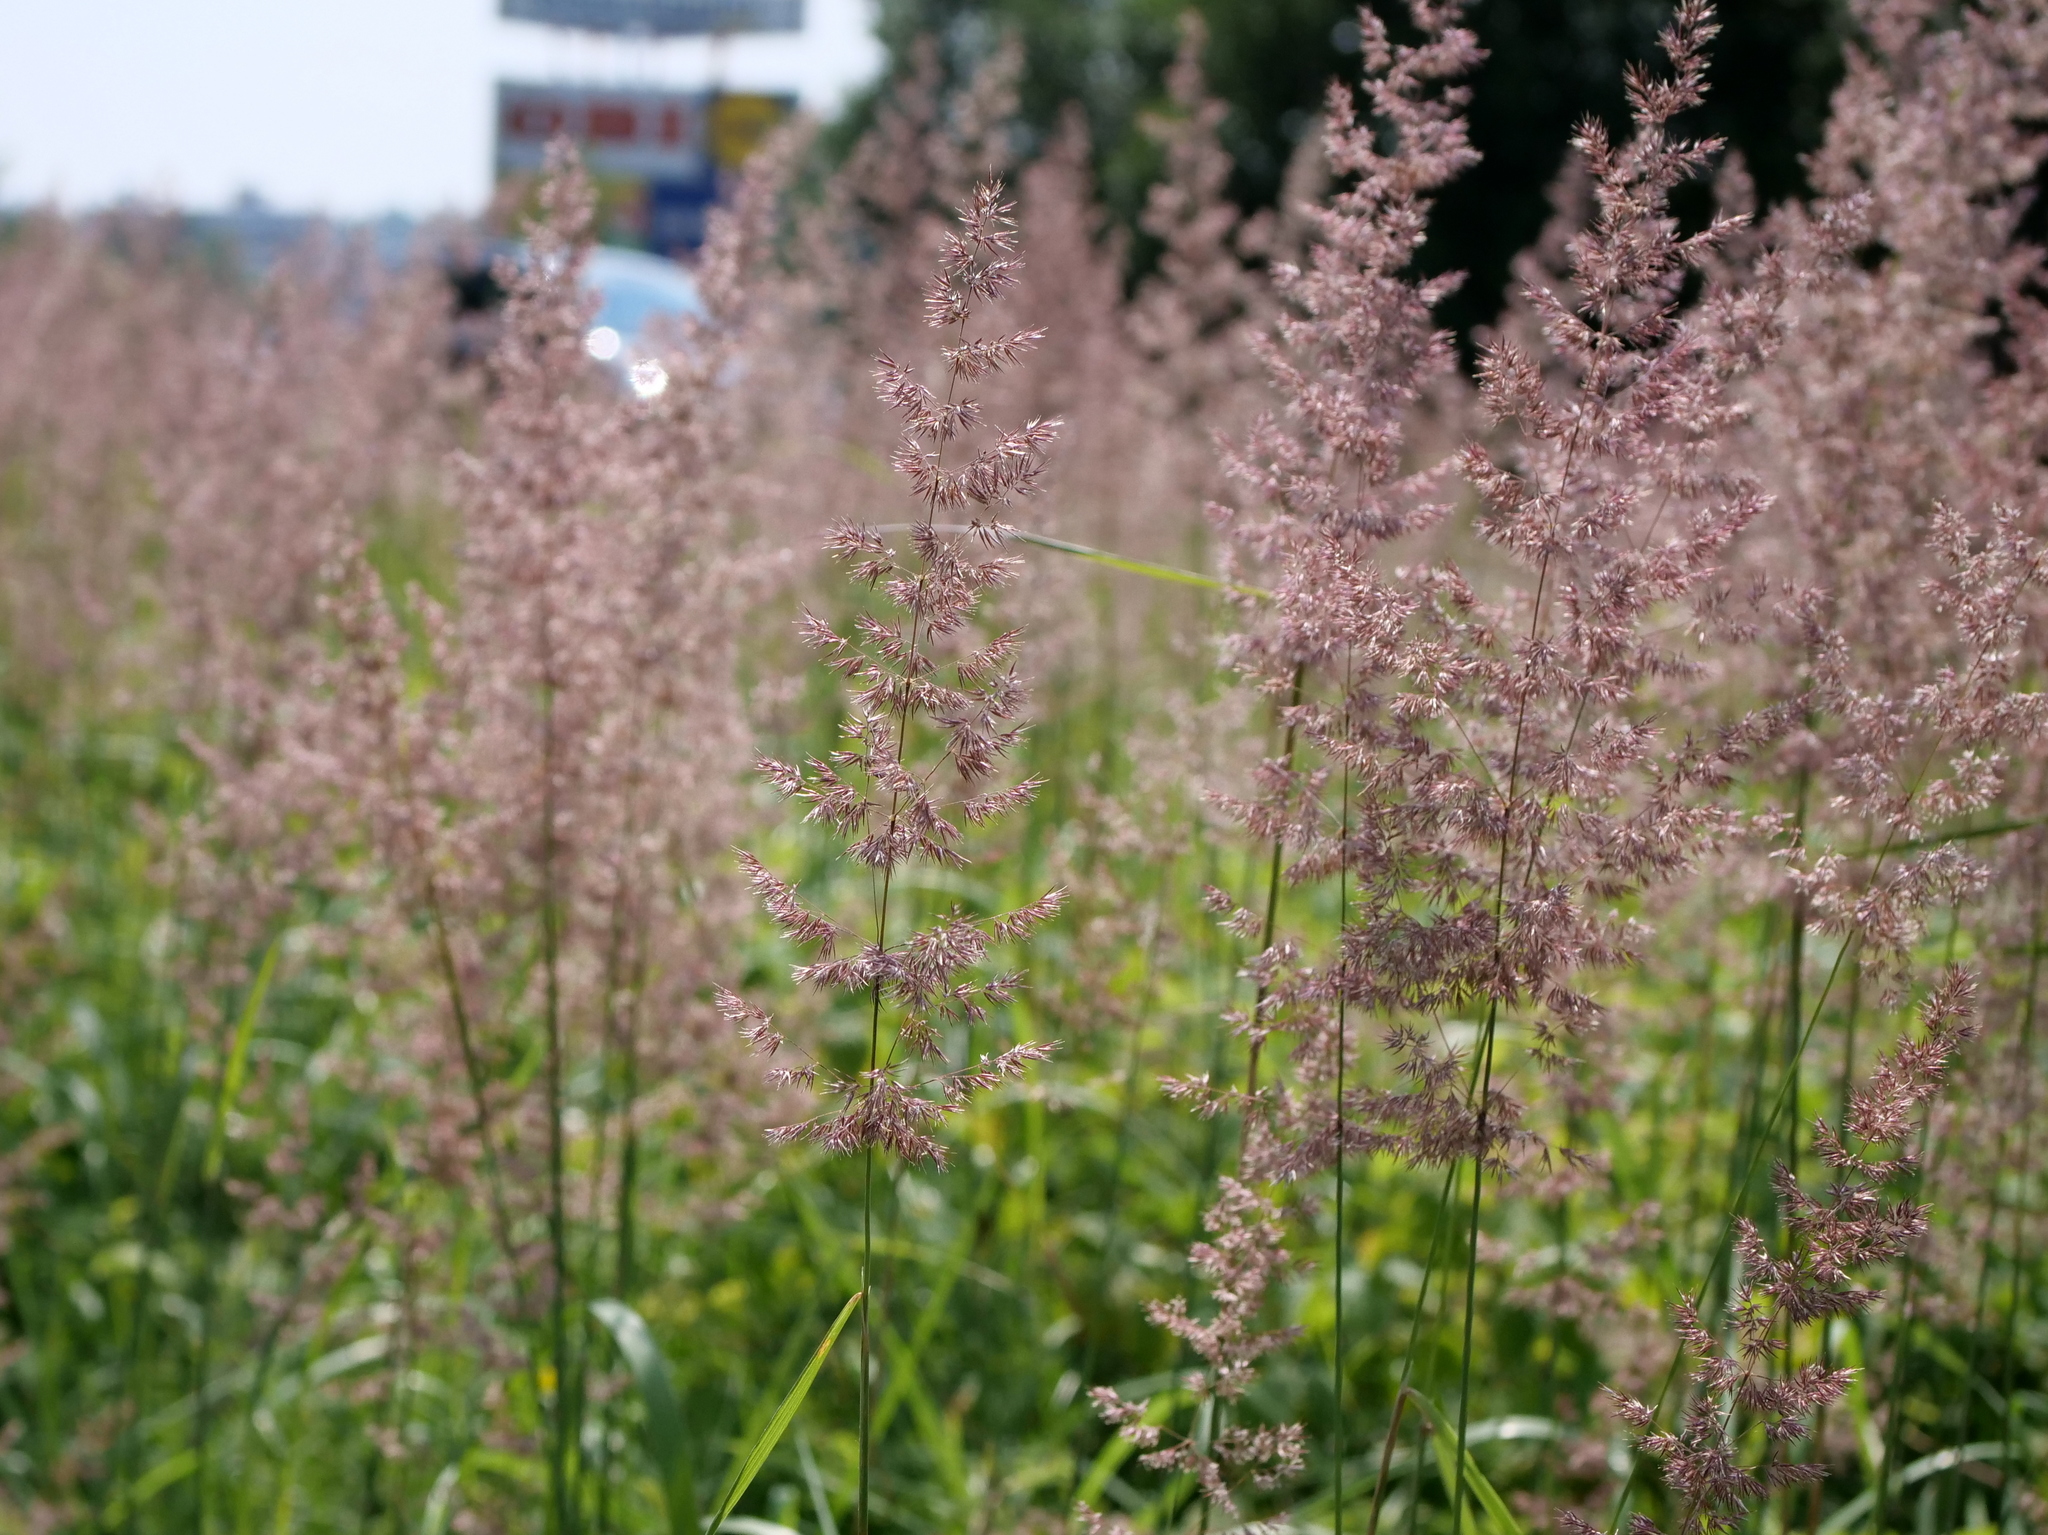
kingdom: Plantae
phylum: Tracheophyta
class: Liliopsida
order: Poales
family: Poaceae
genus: Calamagrostis
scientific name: Calamagrostis epigejos
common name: Wood small-reed
